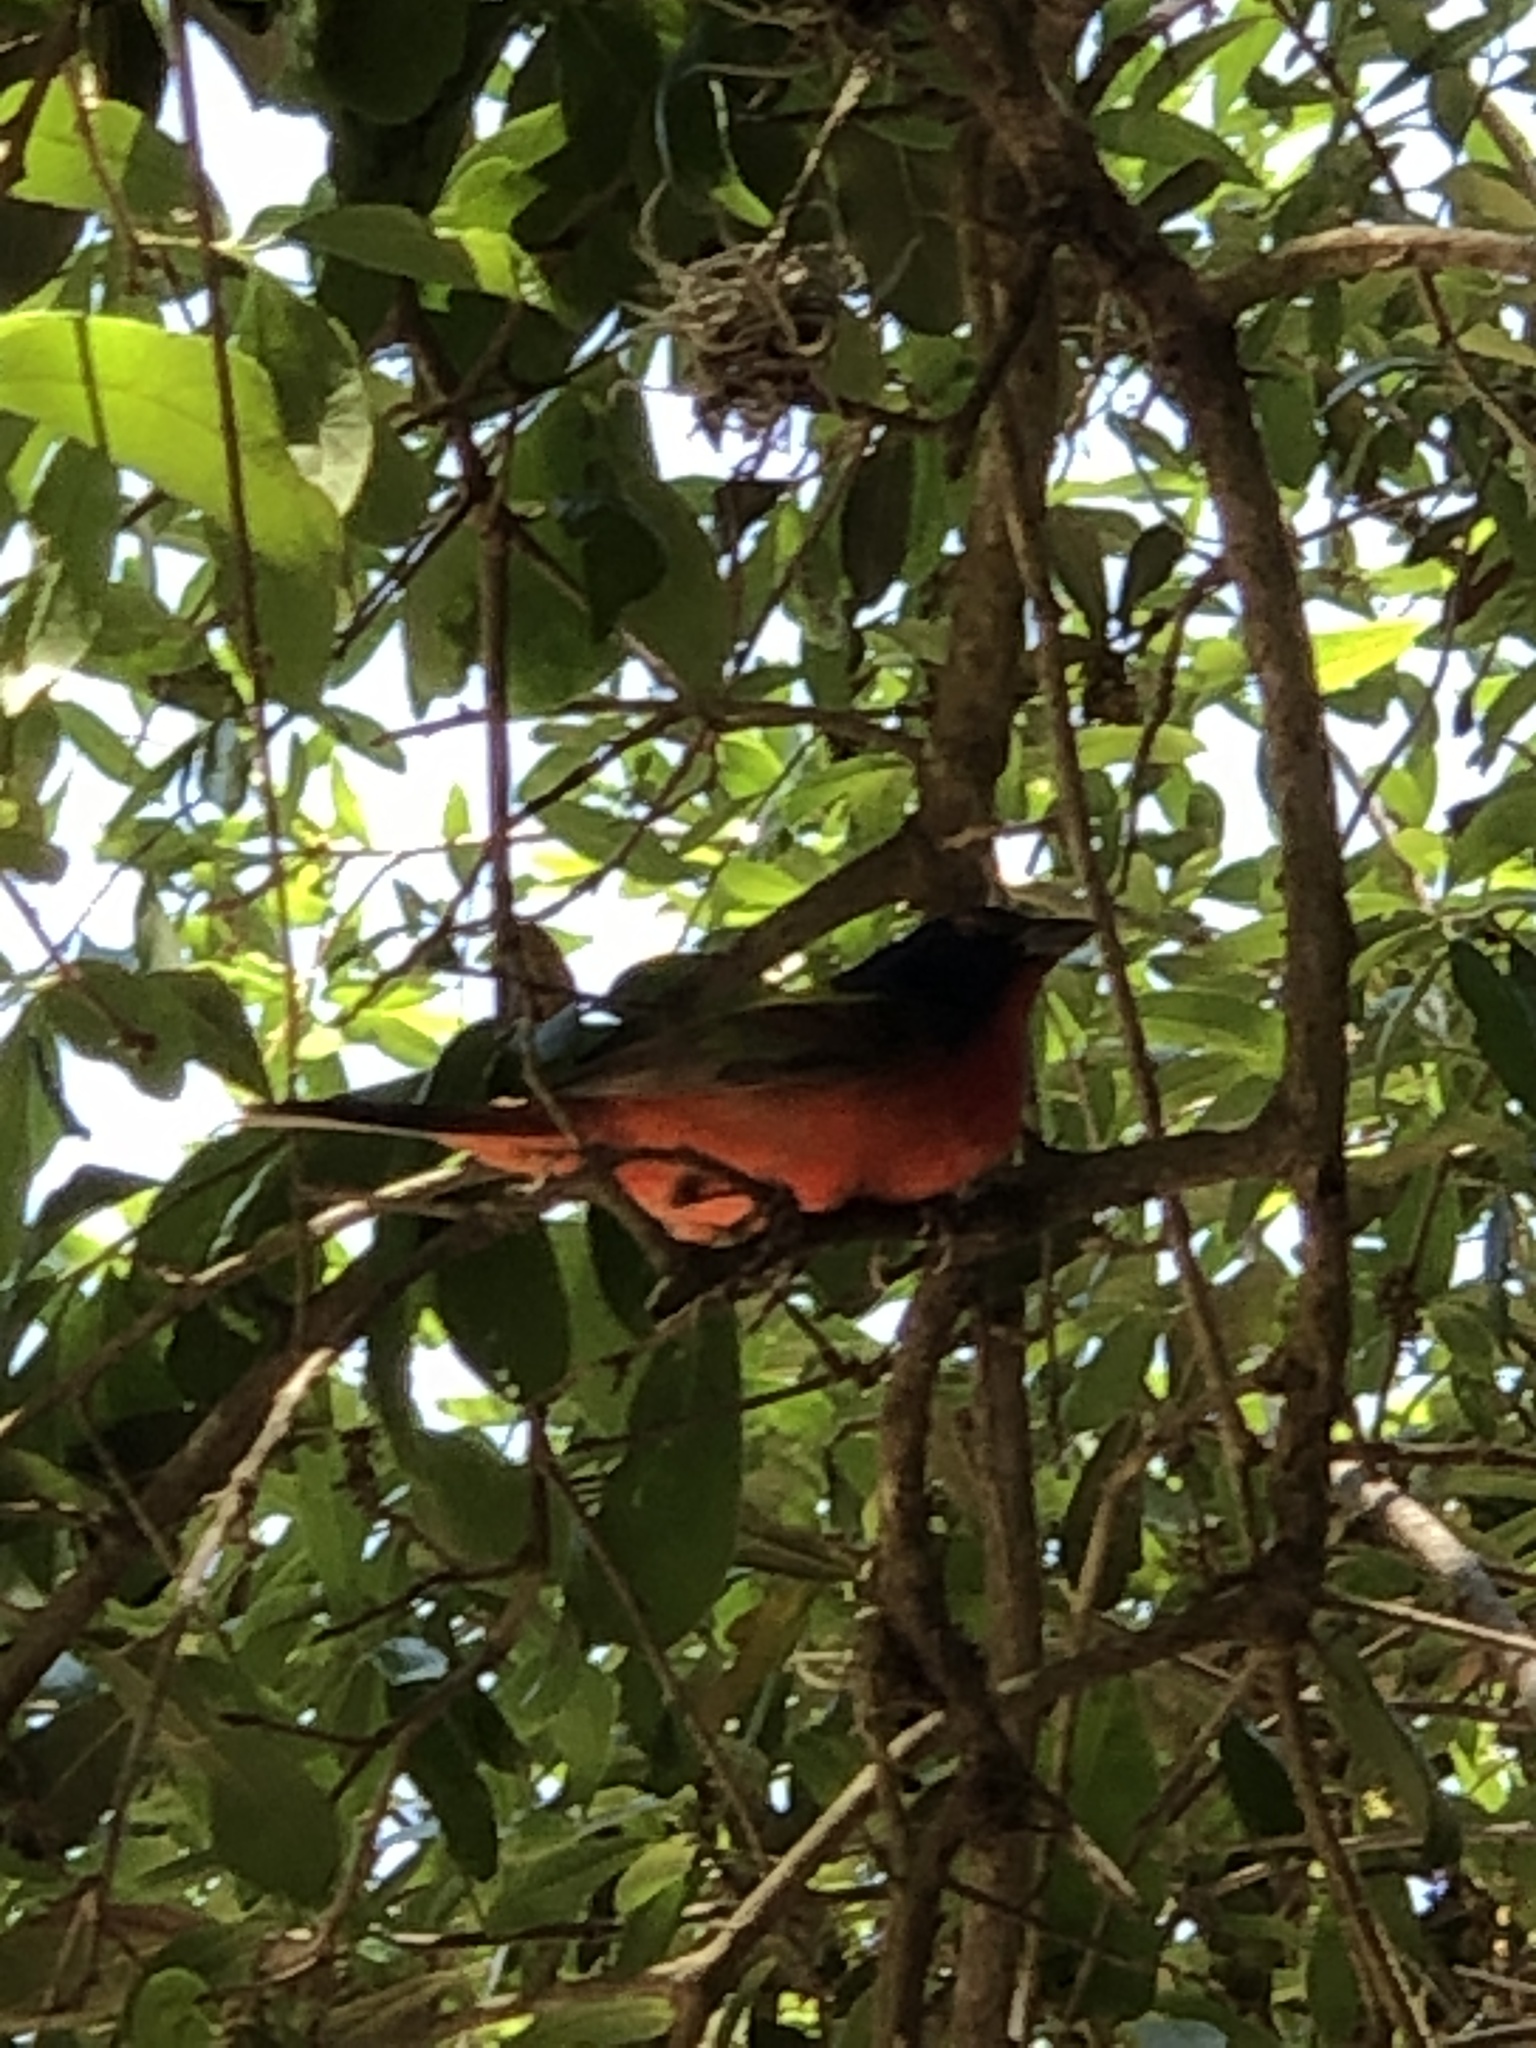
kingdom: Animalia
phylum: Chordata
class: Aves
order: Passeriformes
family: Cardinalidae
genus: Passerina
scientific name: Passerina ciris
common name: Painted bunting
